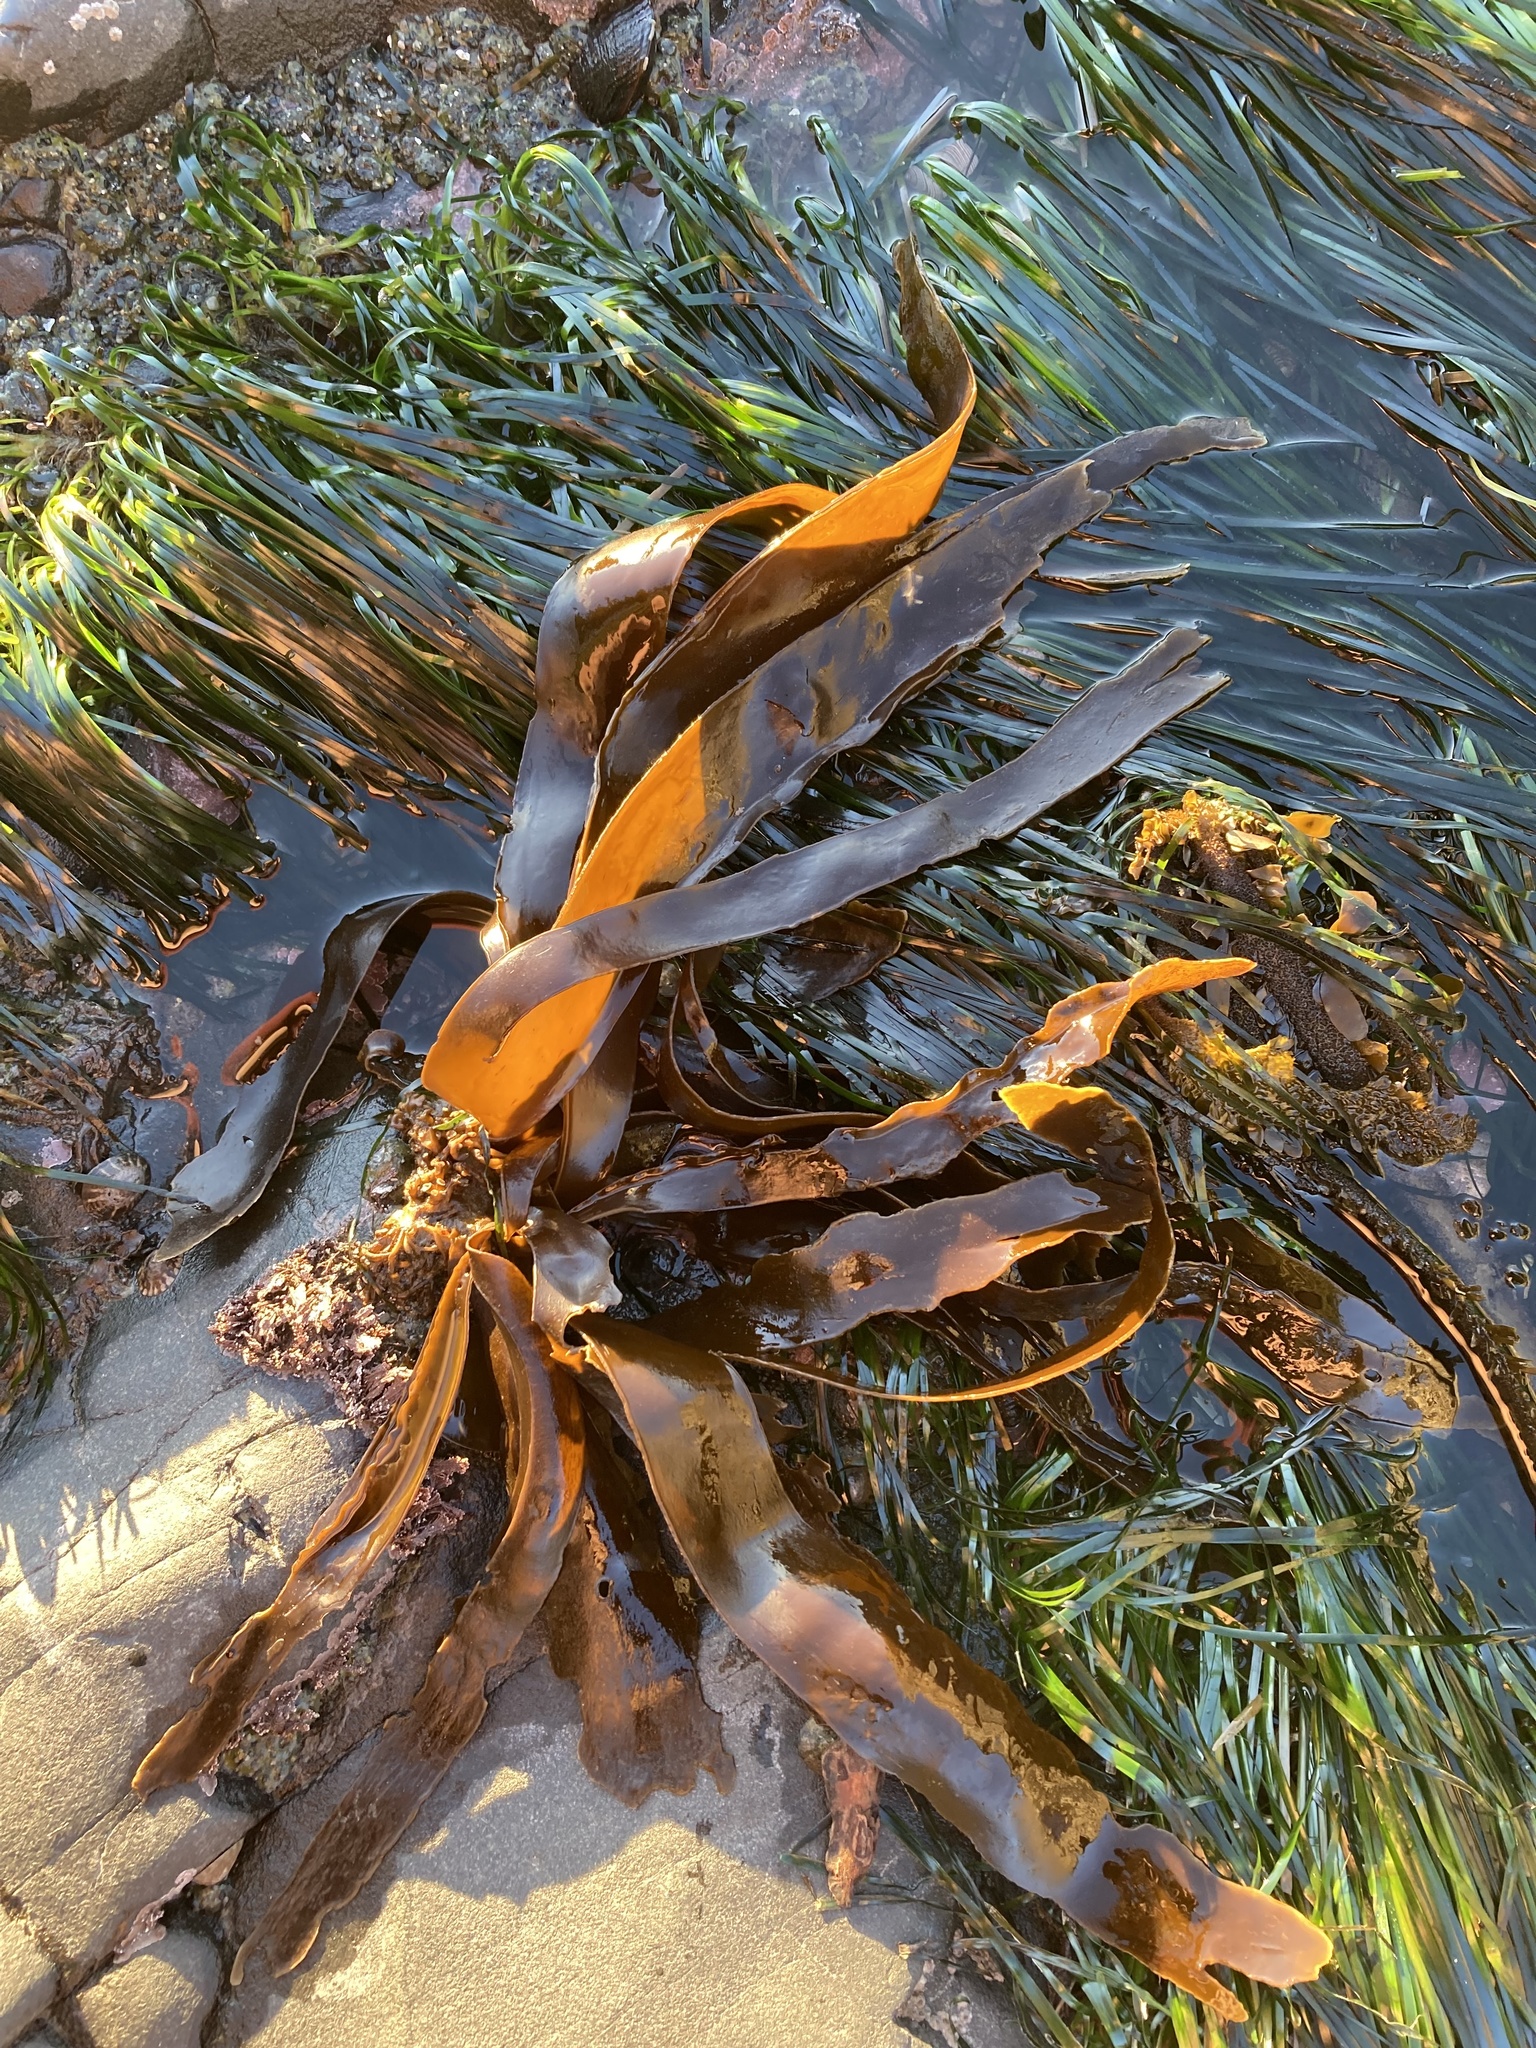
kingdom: Chromista
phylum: Ochrophyta
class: Phaeophyceae
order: Laminariales
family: Laminariaceae
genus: Hedophyllum
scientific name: Hedophyllum sessile
